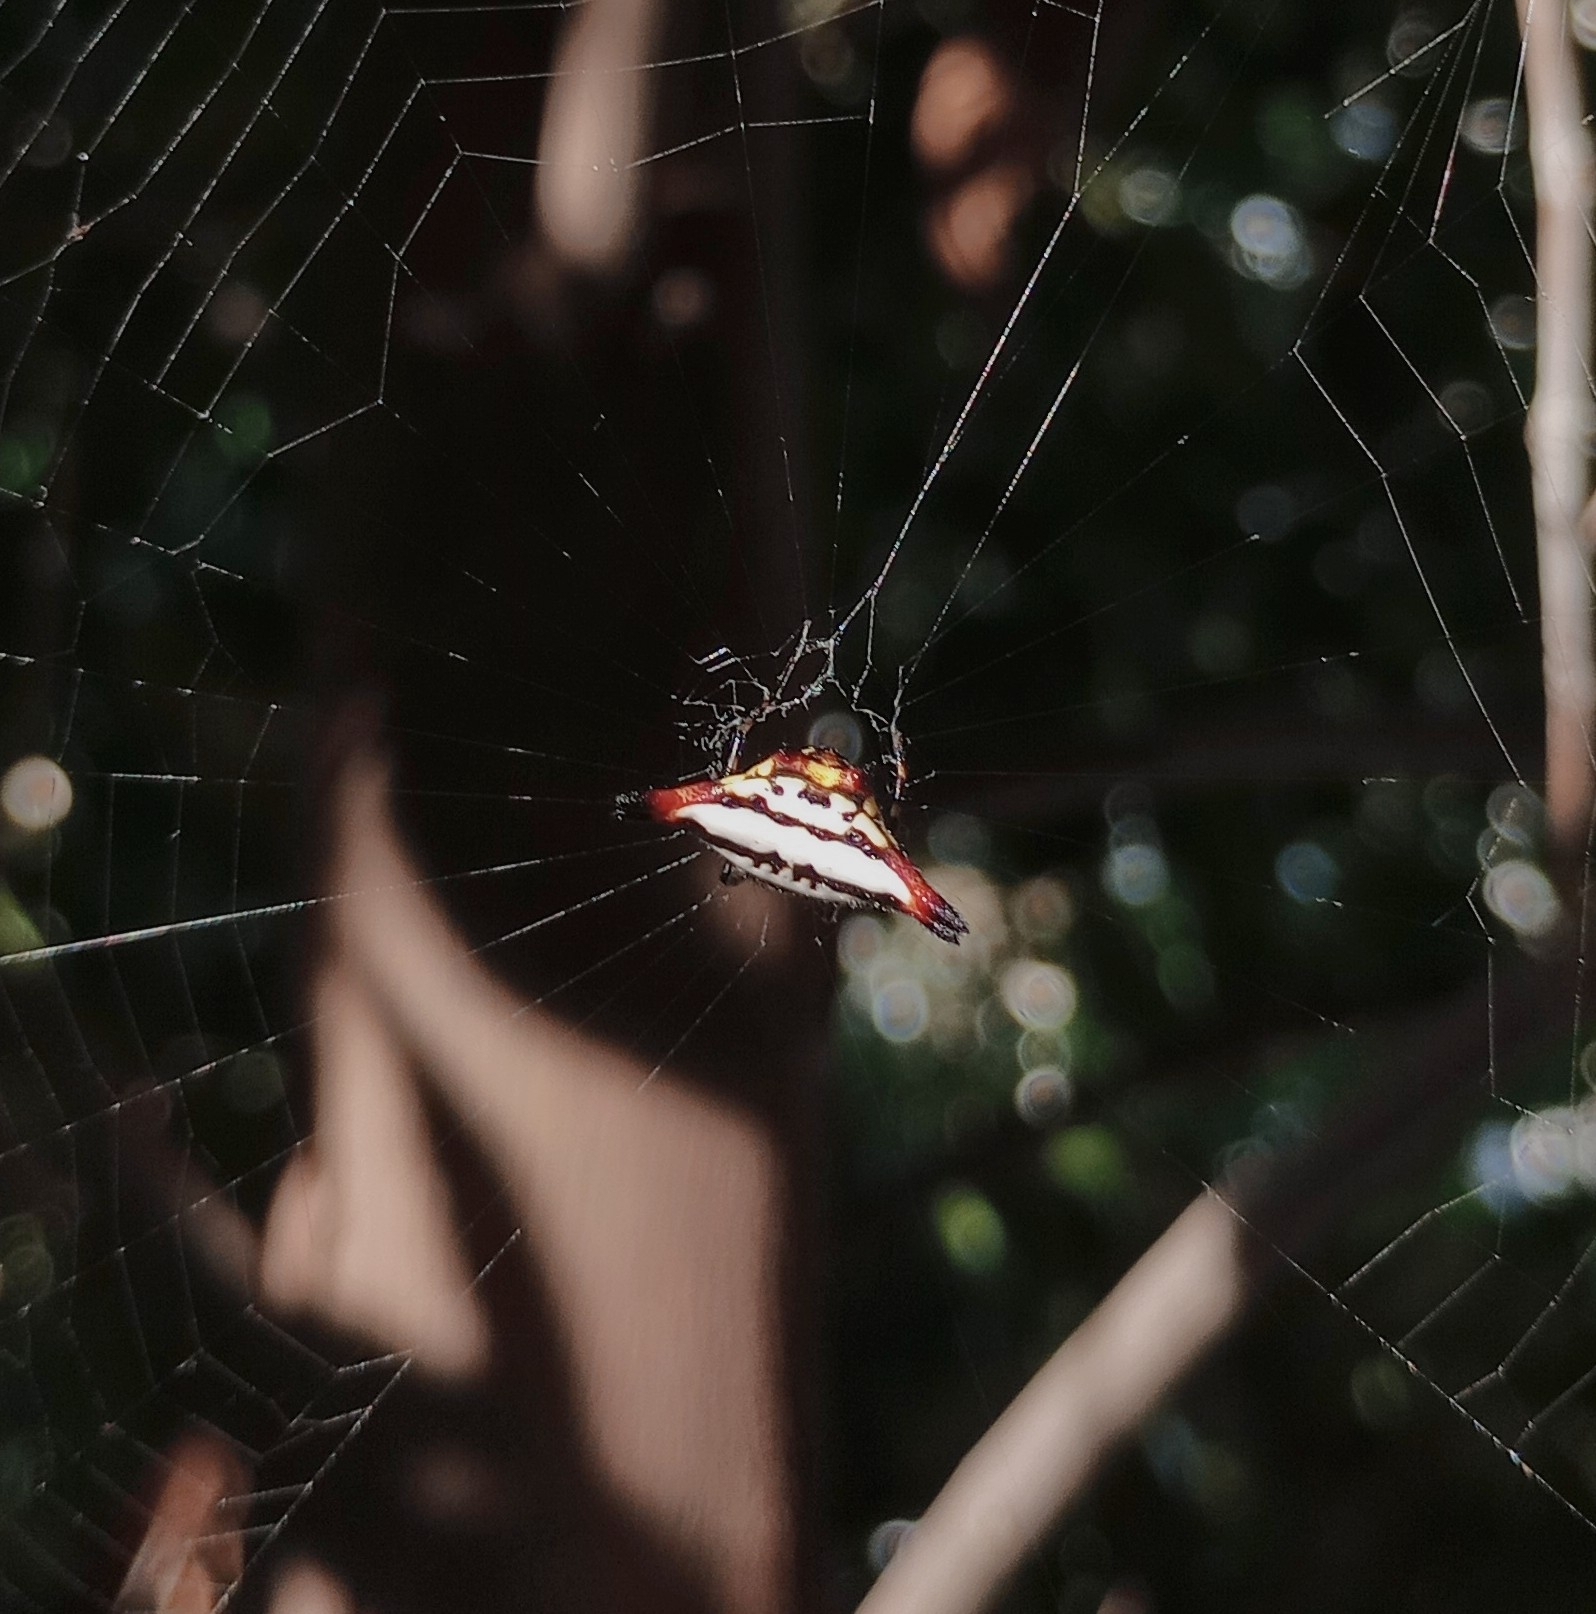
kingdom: Animalia
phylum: Arthropoda
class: Arachnida
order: Araneae
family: Araneidae
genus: Gasteracantha
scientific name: Gasteracantha geminata
